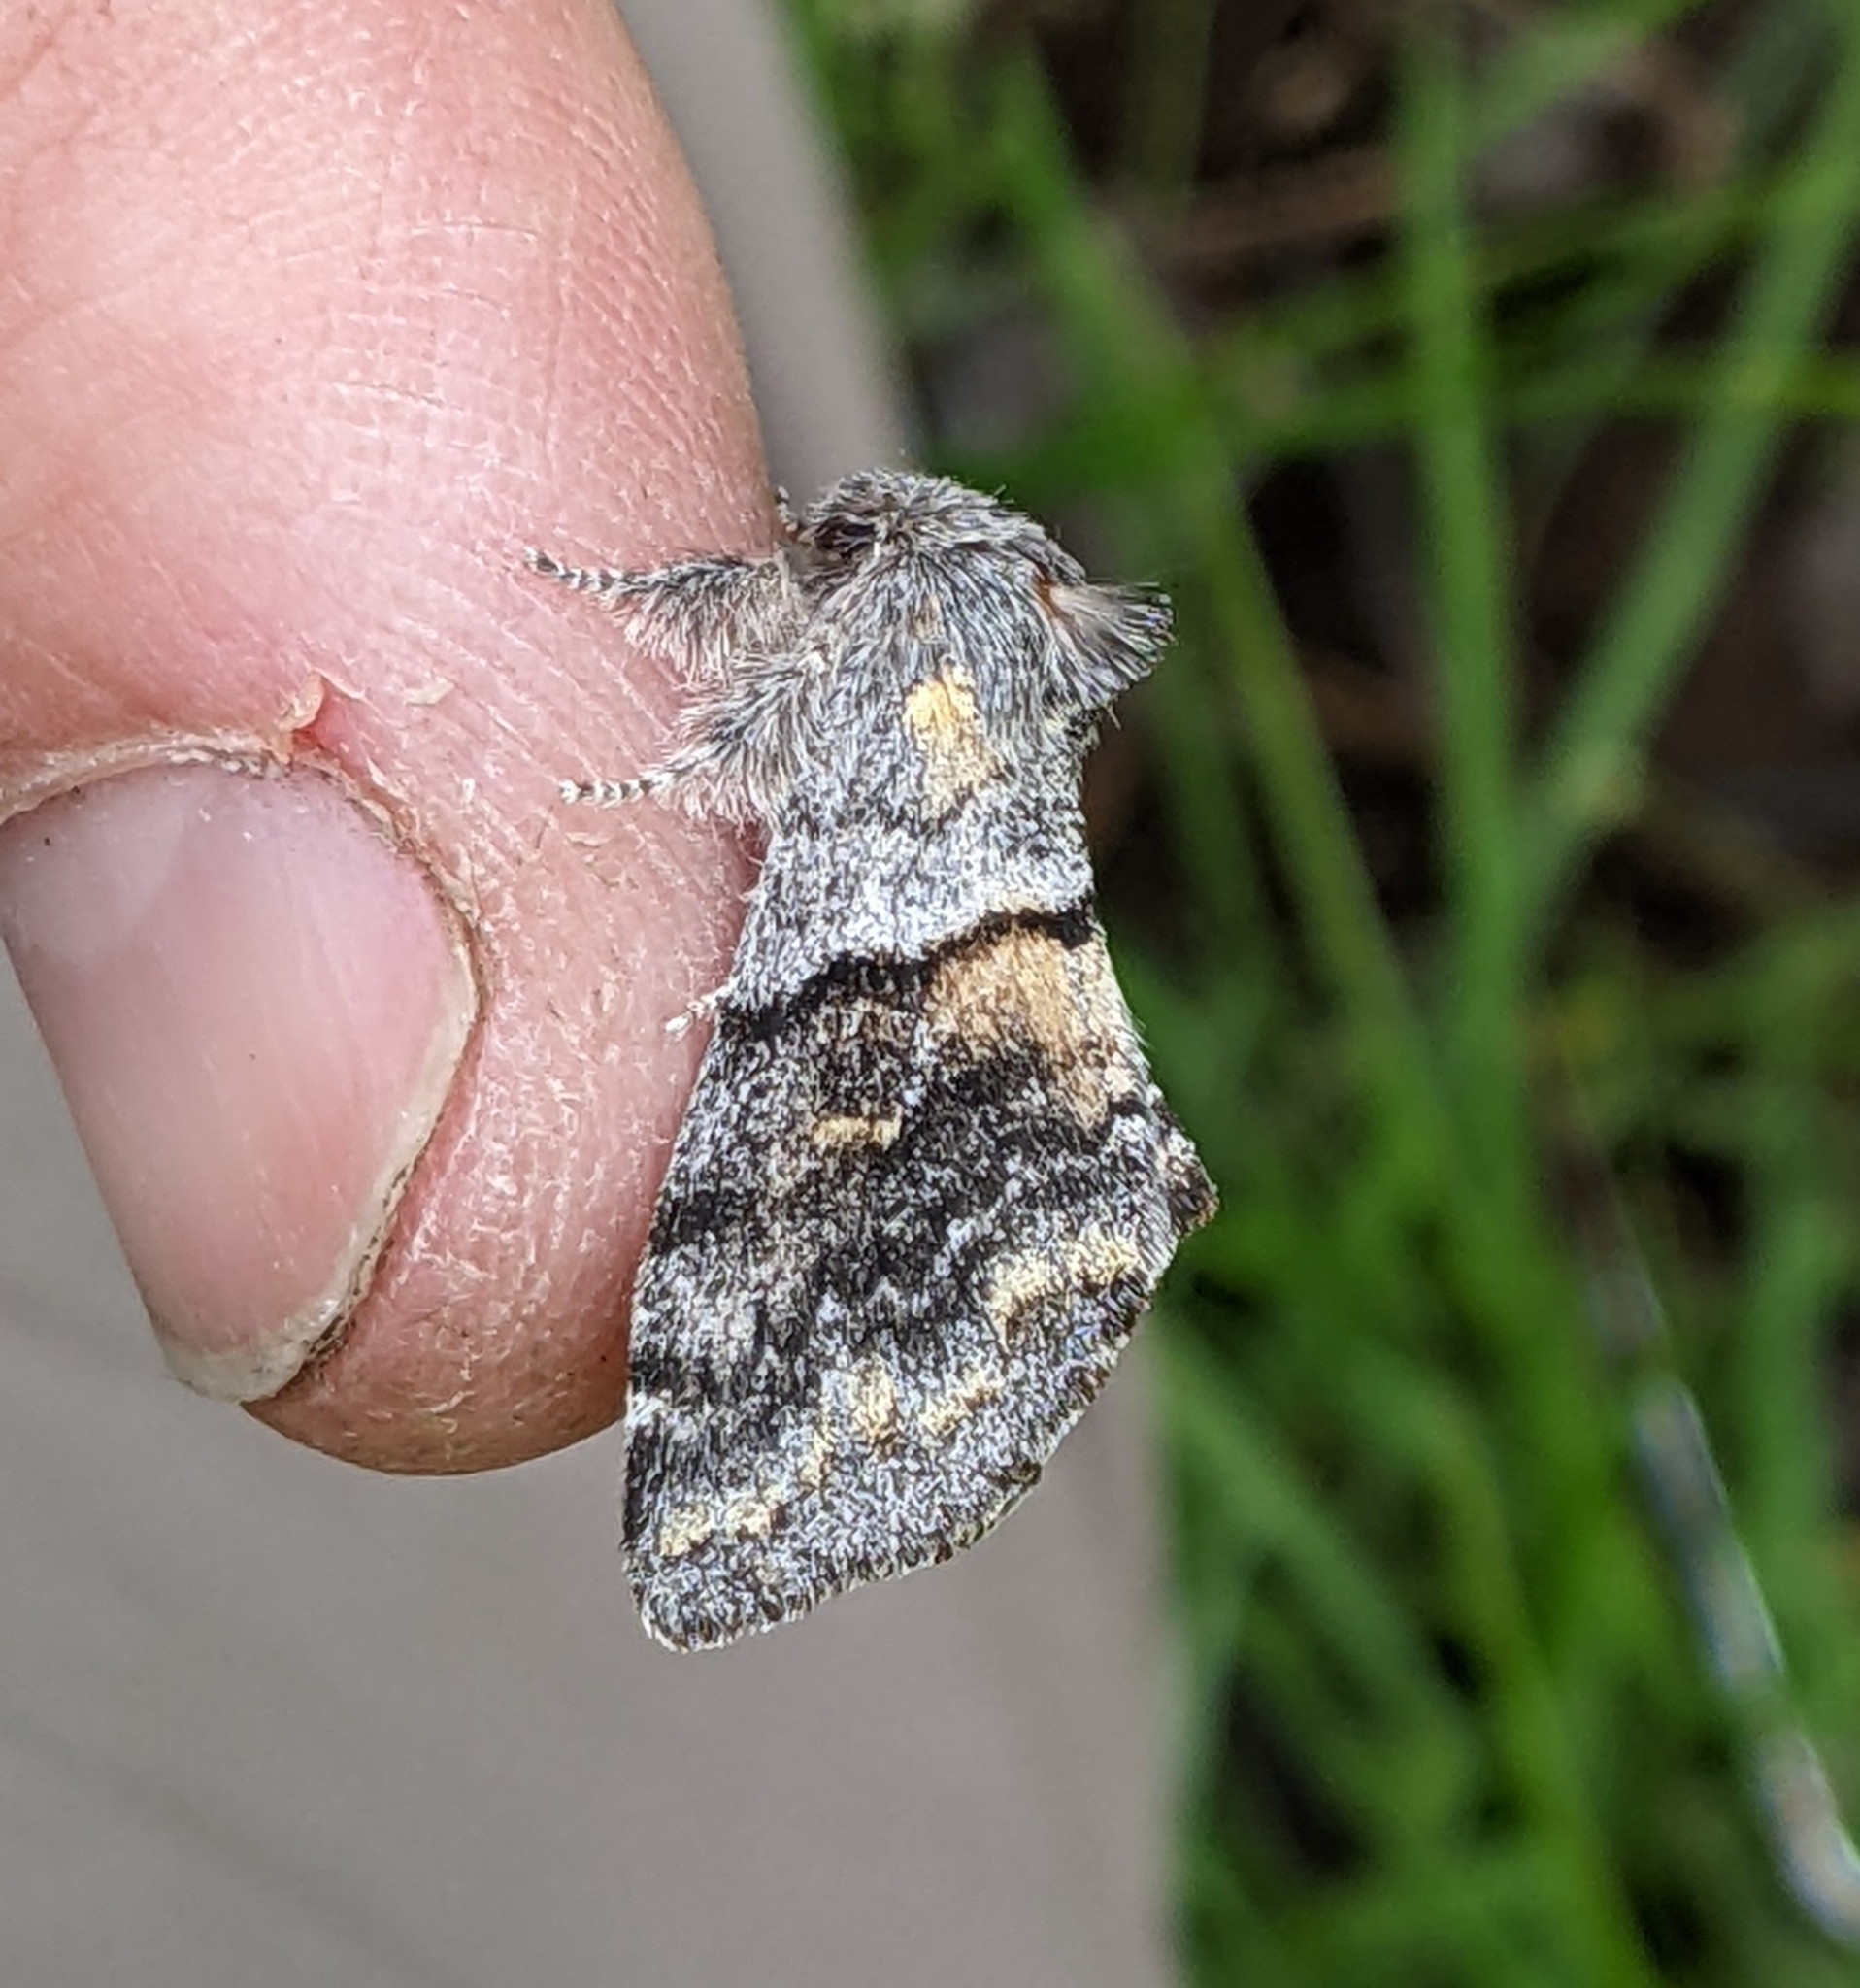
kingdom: Animalia
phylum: Arthropoda
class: Insecta
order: Lepidoptera
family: Notodontidae
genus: Gluphisia
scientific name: Gluphisia severa
